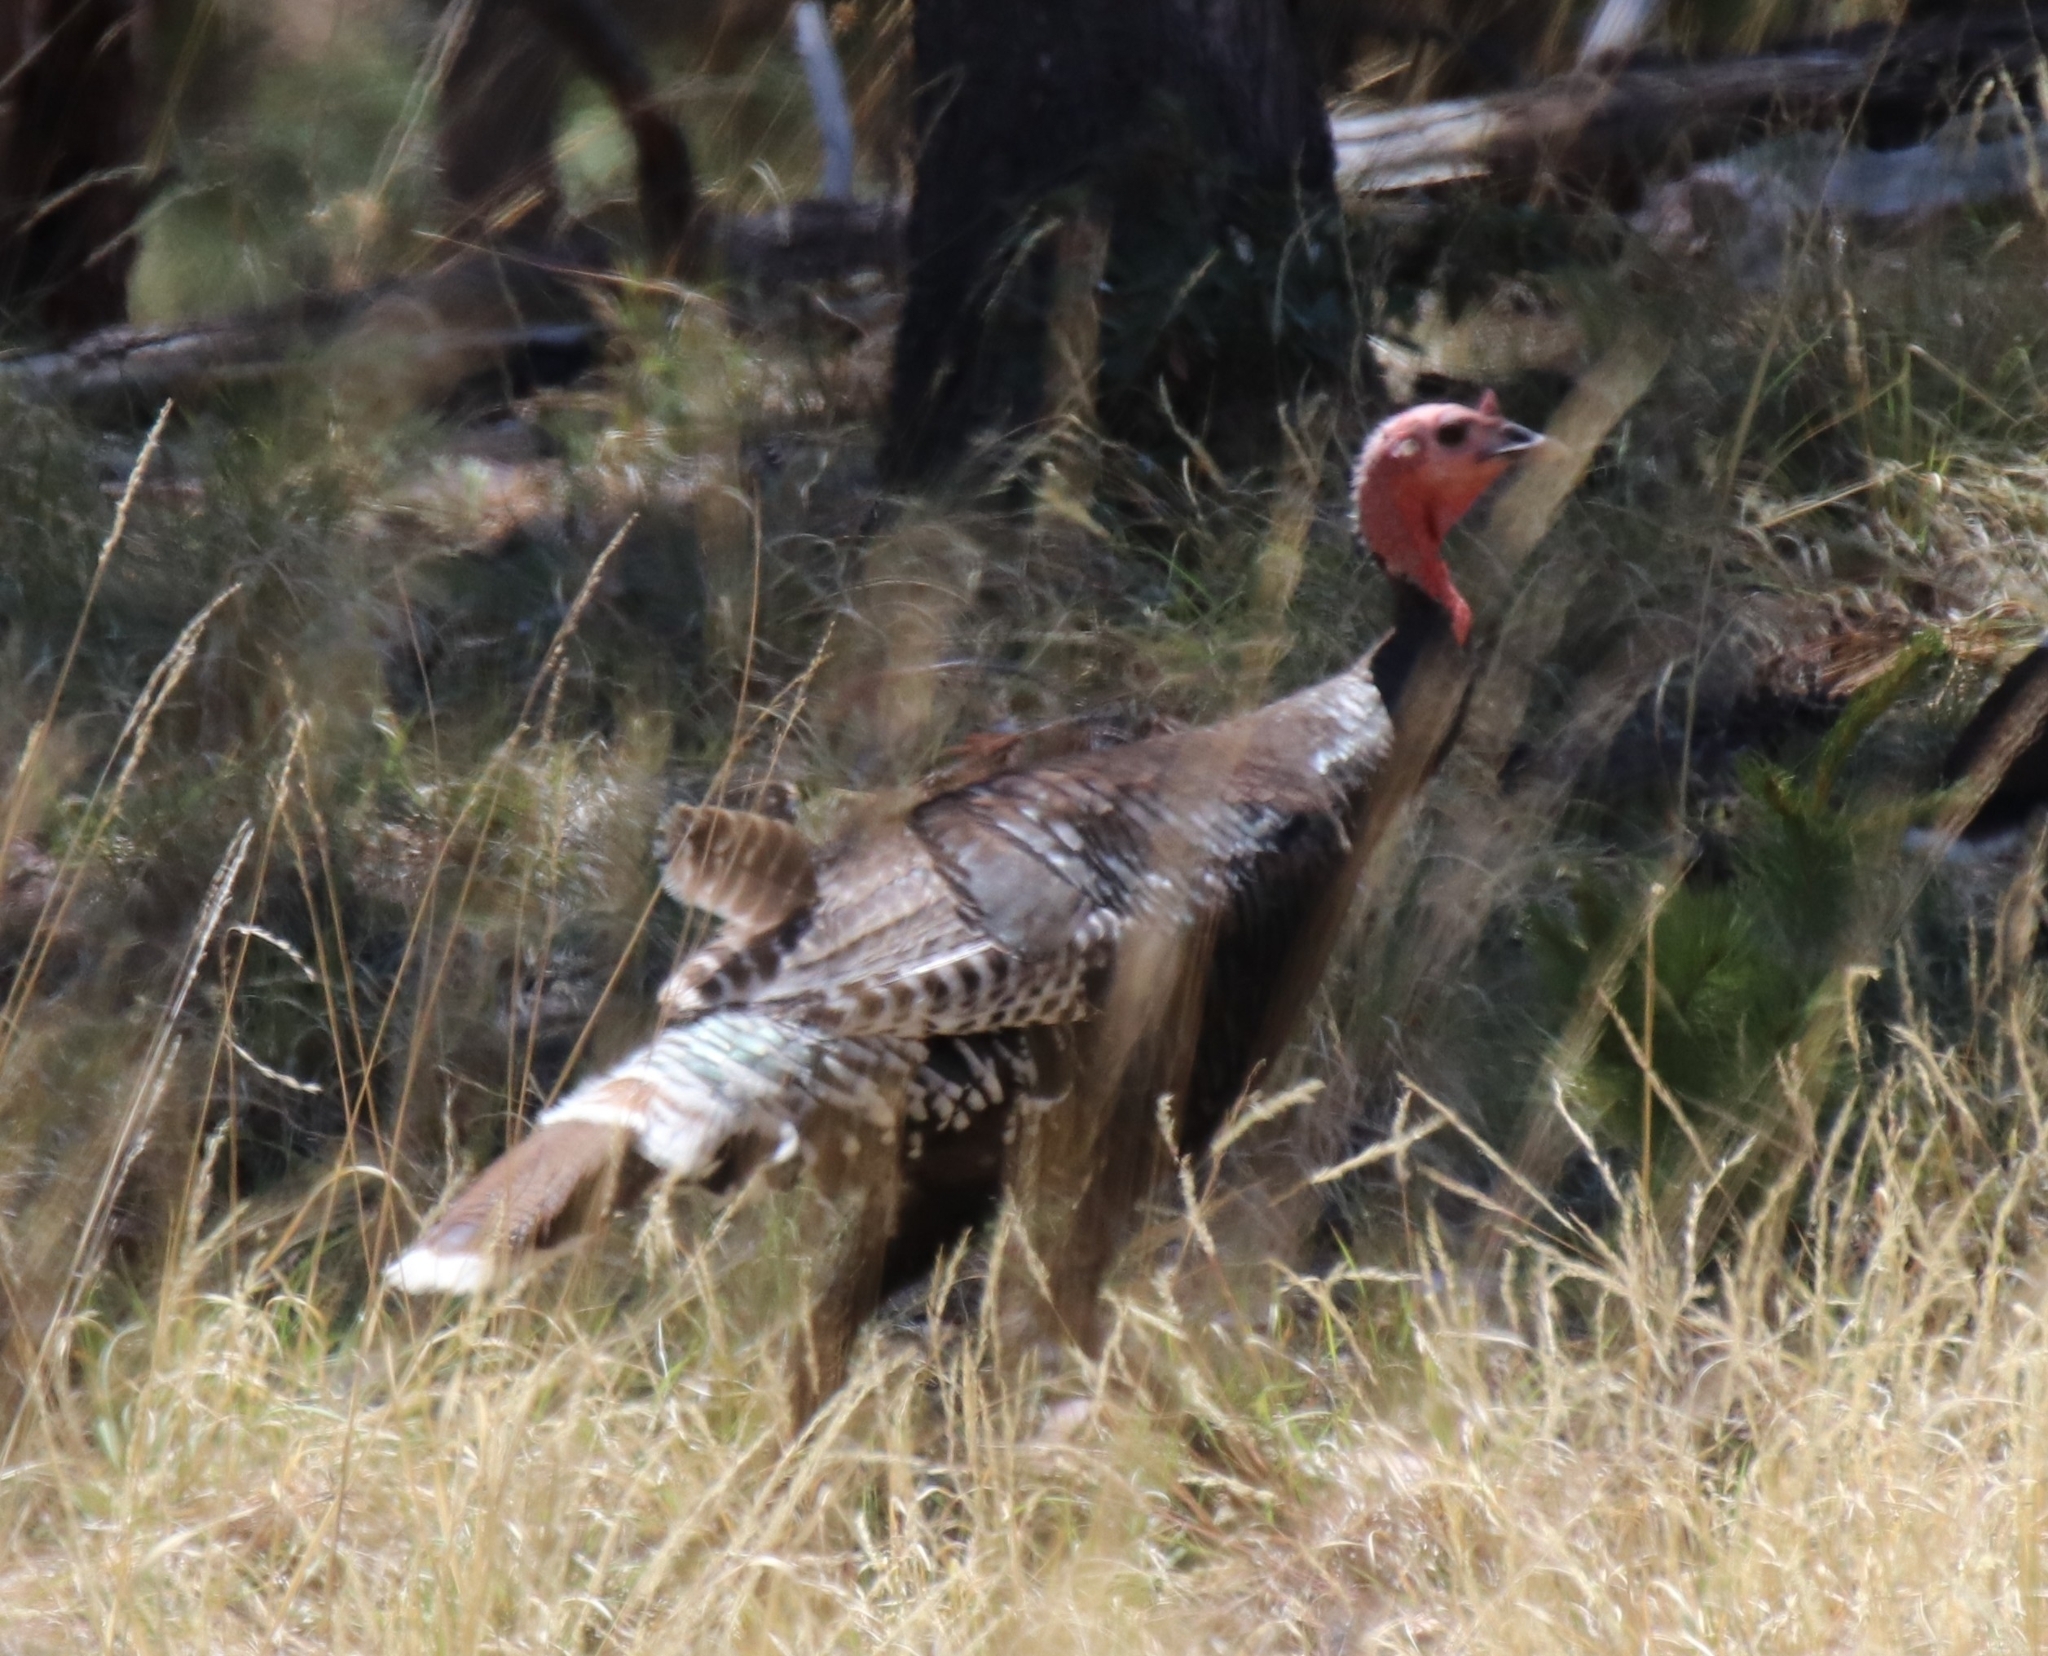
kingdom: Animalia
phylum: Chordata
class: Aves
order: Galliformes
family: Phasianidae
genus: Meleagris
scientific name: Meleagris gallopavo
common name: Wild turkey
